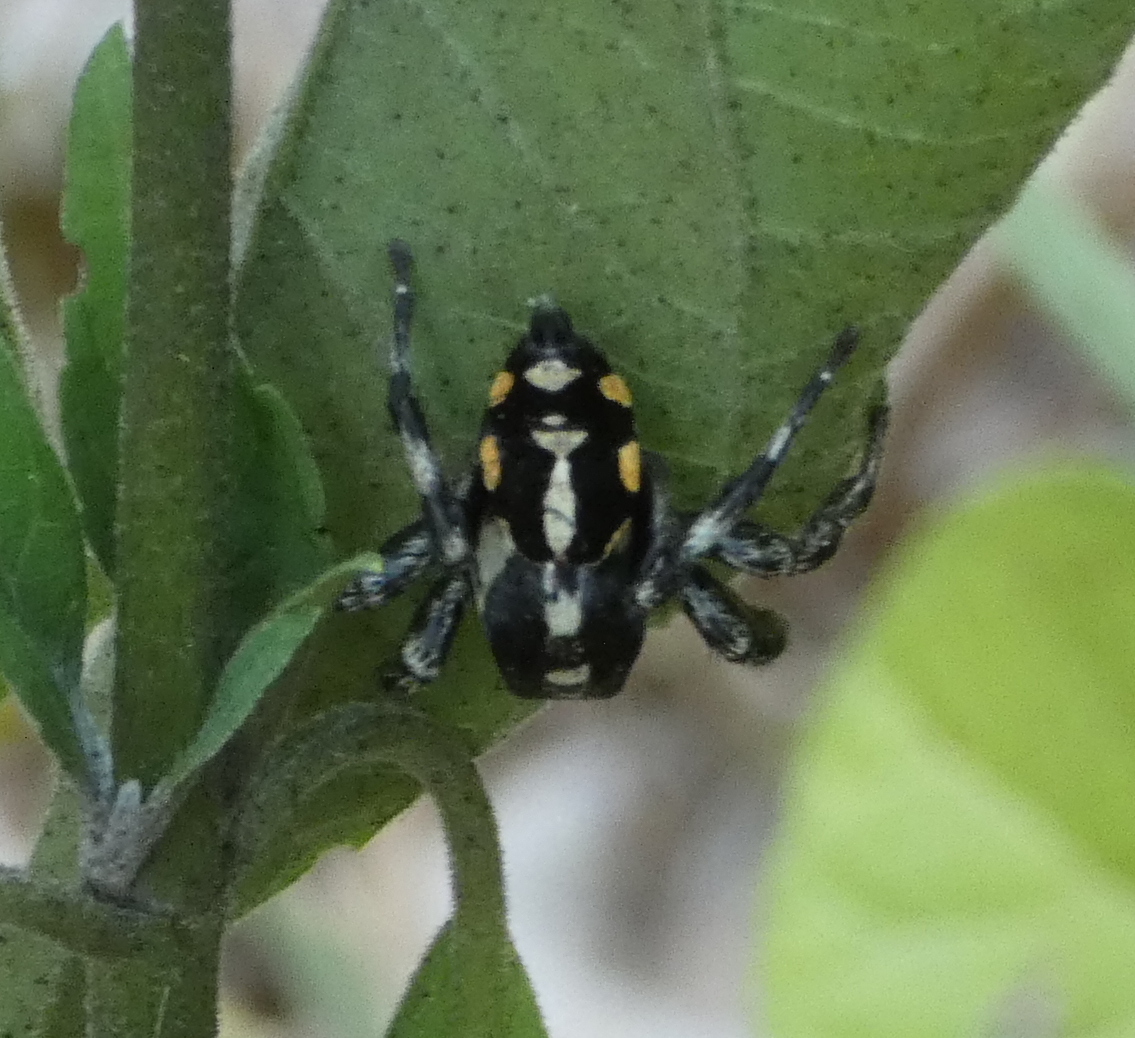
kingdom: Animalia
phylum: Arthropoda
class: Arachnida
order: Araneae
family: Salticidae
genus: Phiale
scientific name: Phiale
